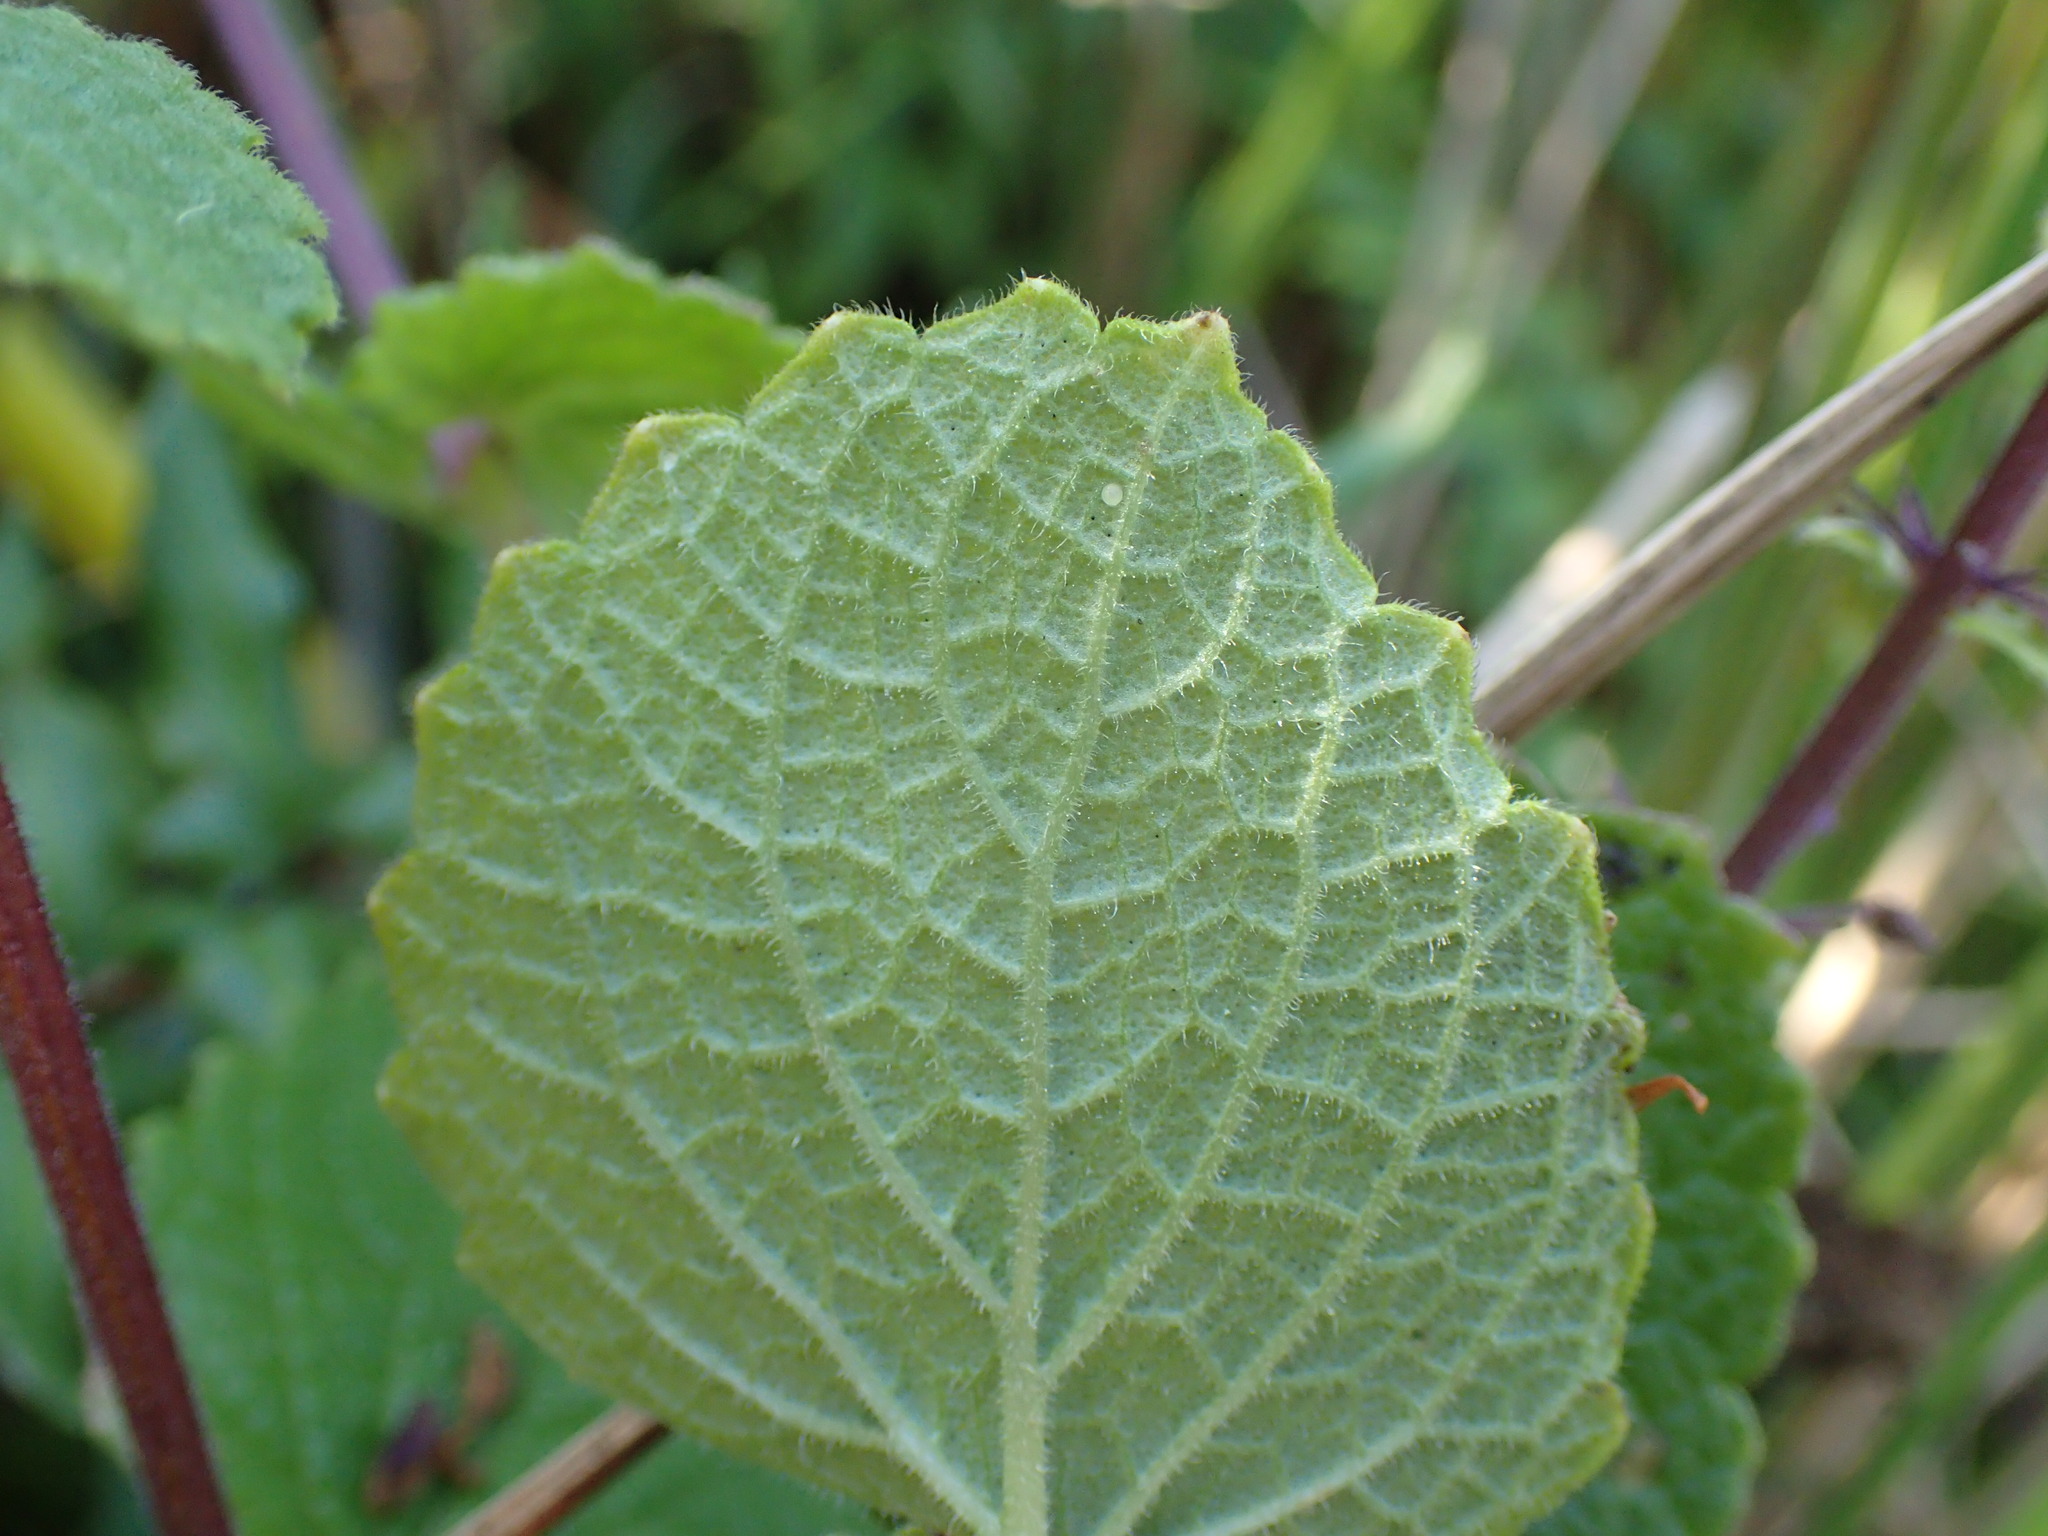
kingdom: Plantae
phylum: Tracheophyta
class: Magnoliopsida
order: Lamiales
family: Lamiaceae
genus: Plectranthus
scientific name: Plectranthus grallatus
